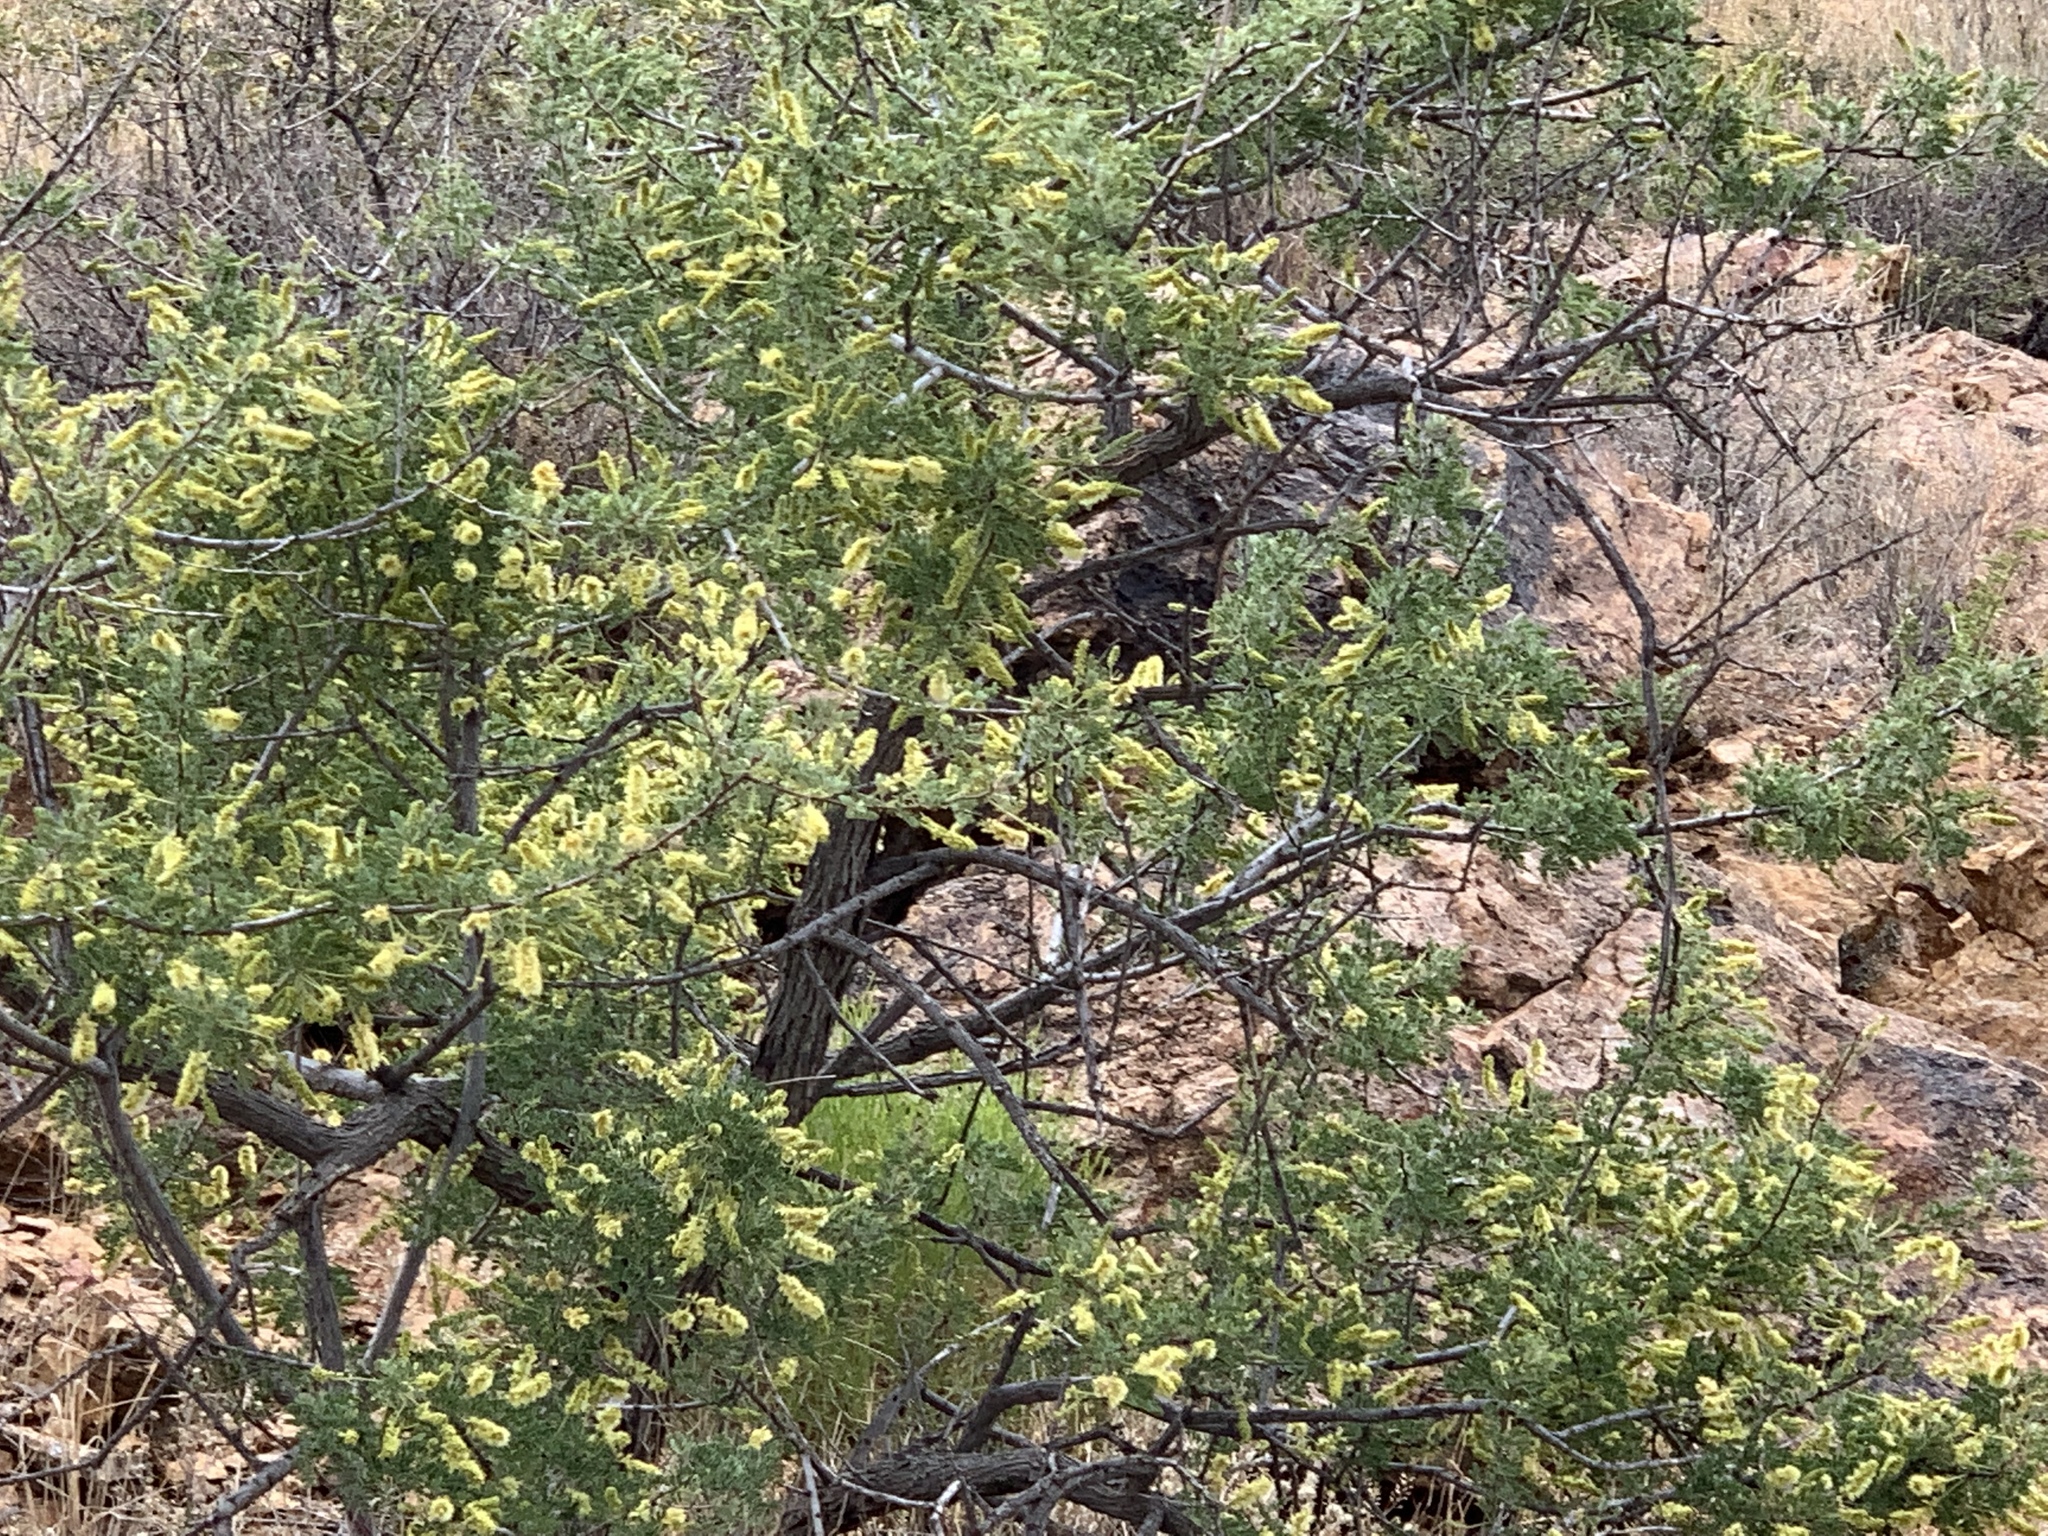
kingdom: Plantae
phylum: Tracheophyta
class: Magnoliopsida
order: Fabales
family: Fabaceae
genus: Senegalia
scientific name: Senegalia greggii
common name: Texas-mimosa
